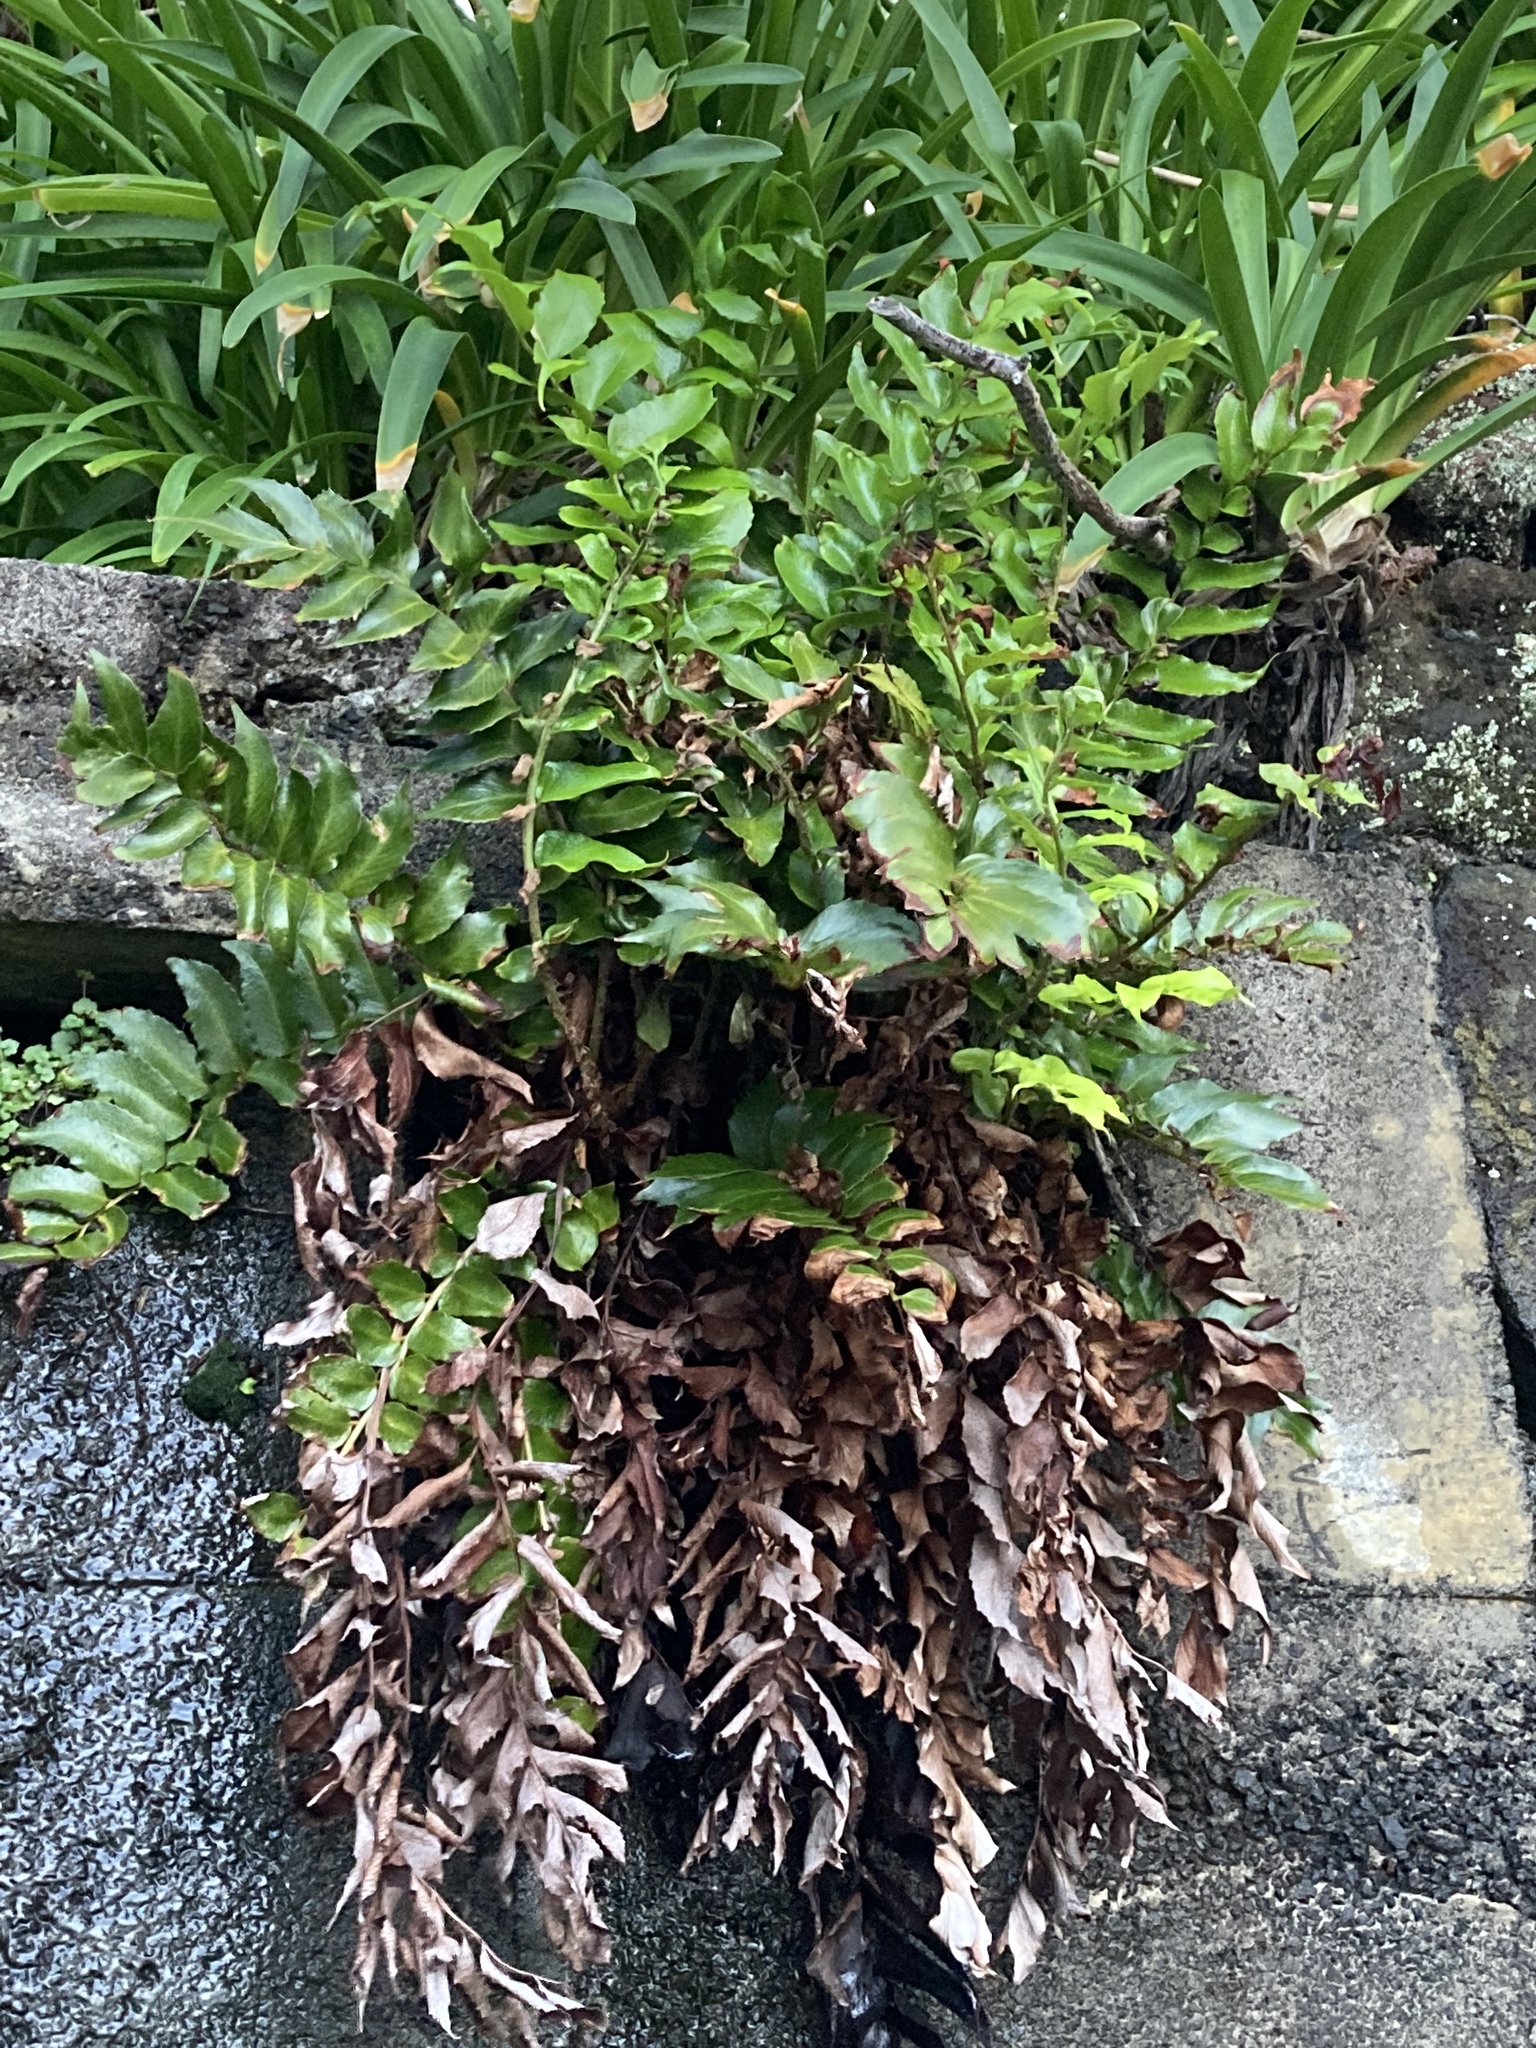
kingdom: Plantae
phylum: Tracheophyta
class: Polypodiopsida
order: Polypodiales
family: Dryopteridaceae
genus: Cyrtomium
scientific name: Cyrtomium falcatum
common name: House holly-fern
